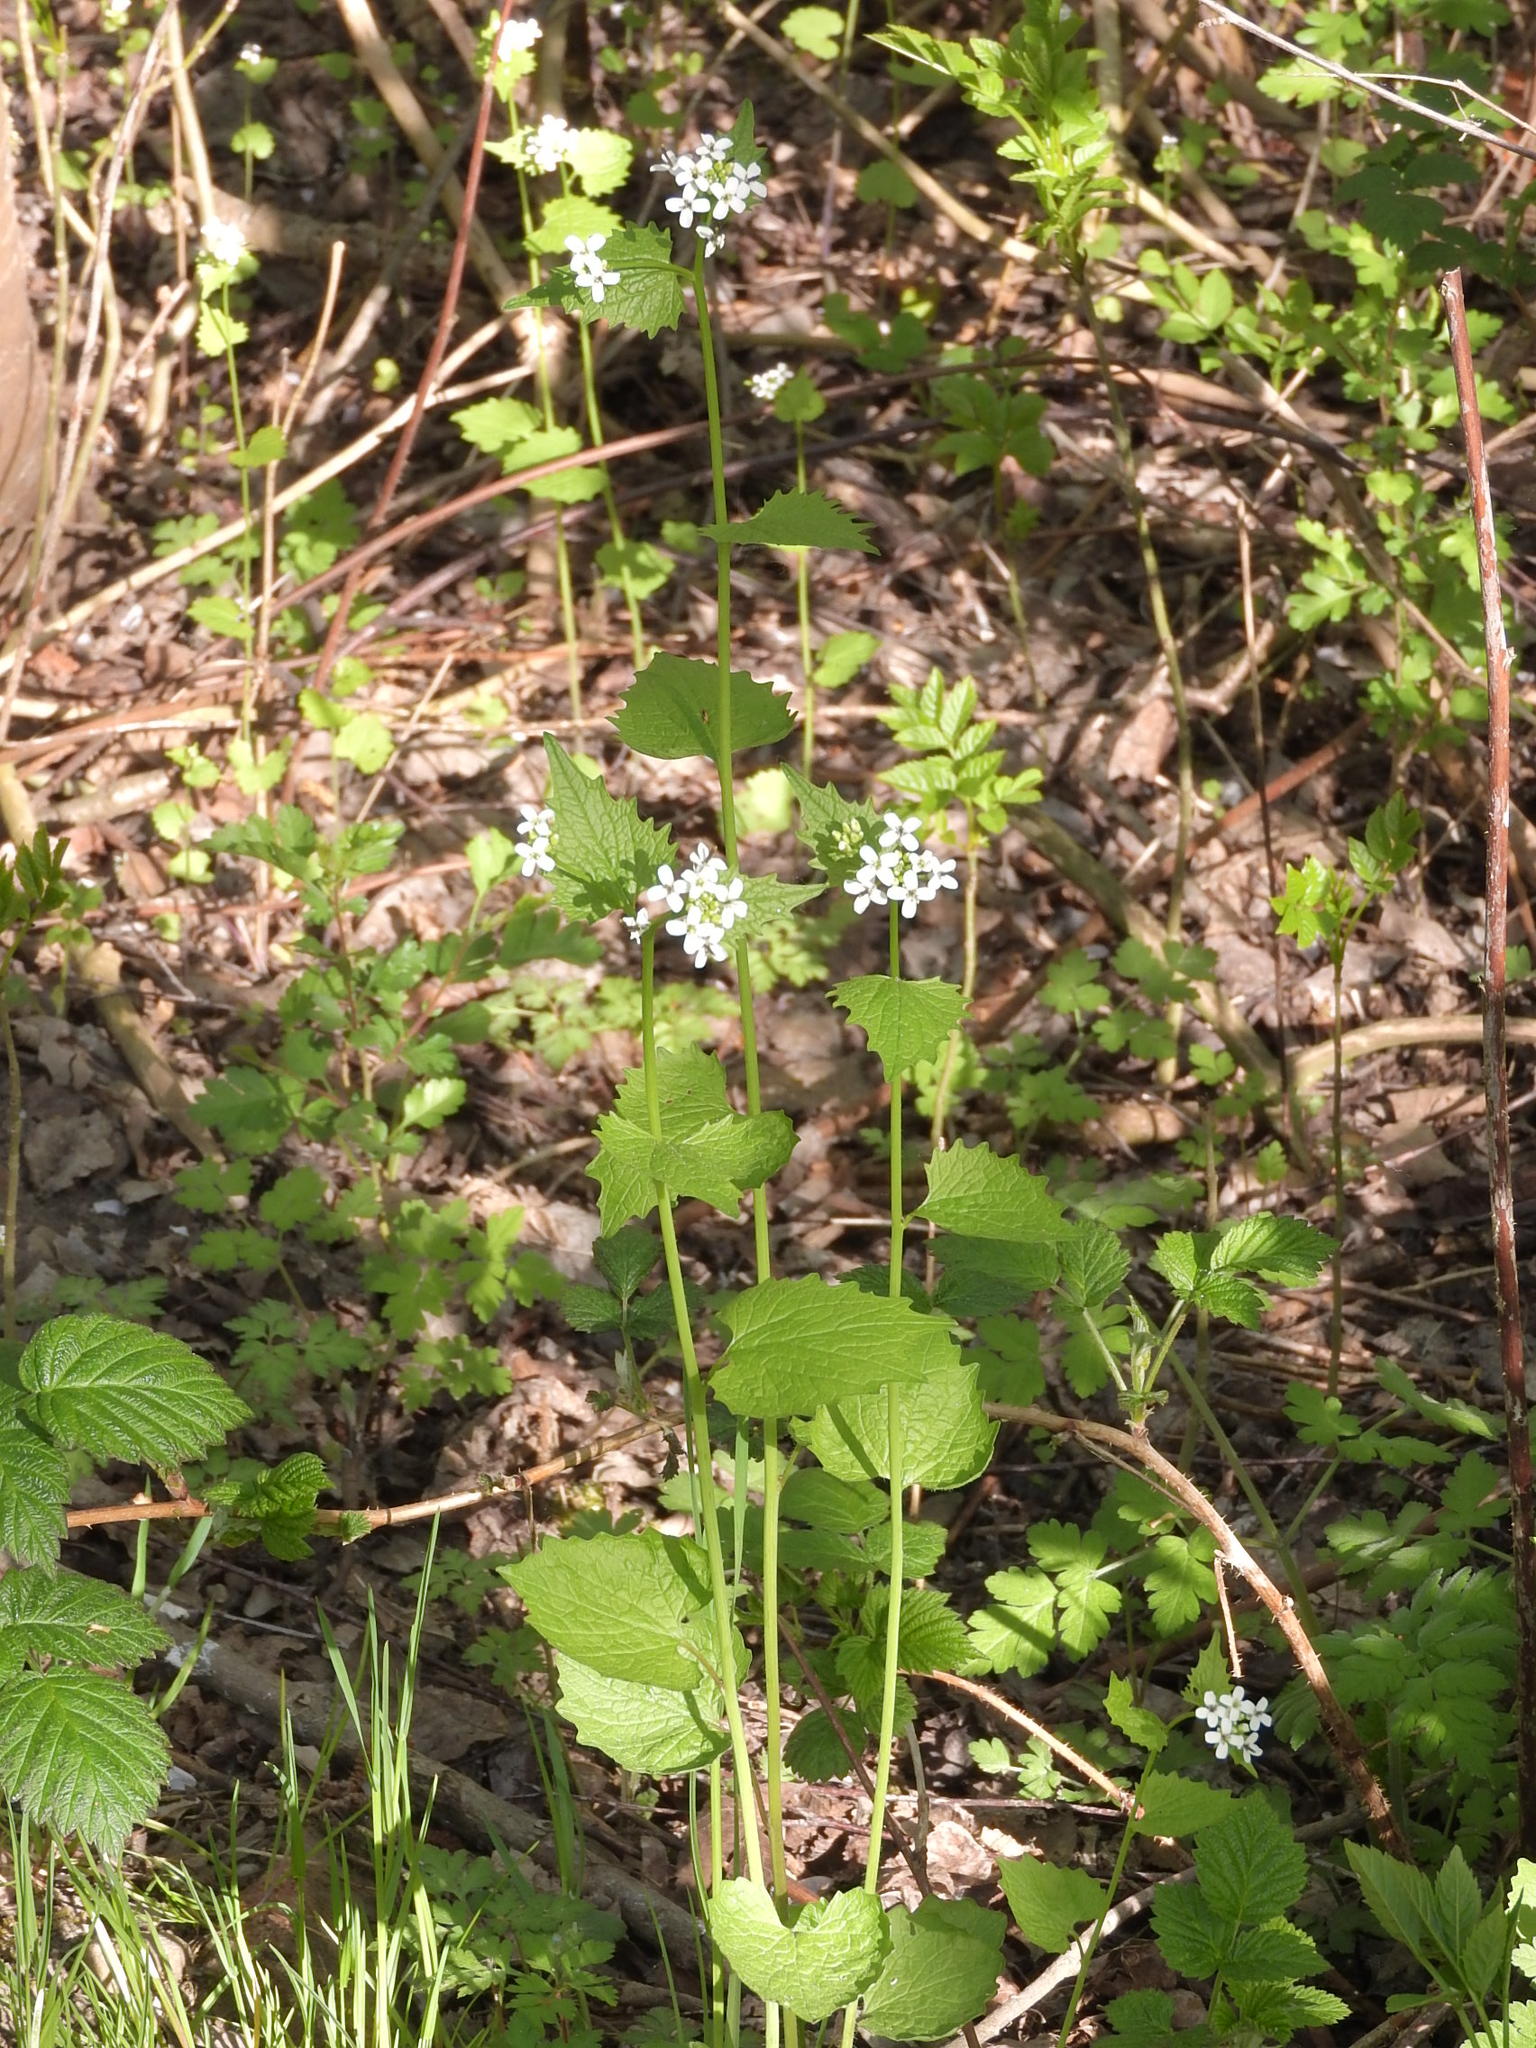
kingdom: Plantae
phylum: Tracheophyta
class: Magnoliopsida
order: Brassicales
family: Brassicaceae
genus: Alliaria
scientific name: Alliaria petiolata
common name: Garlic mustard
